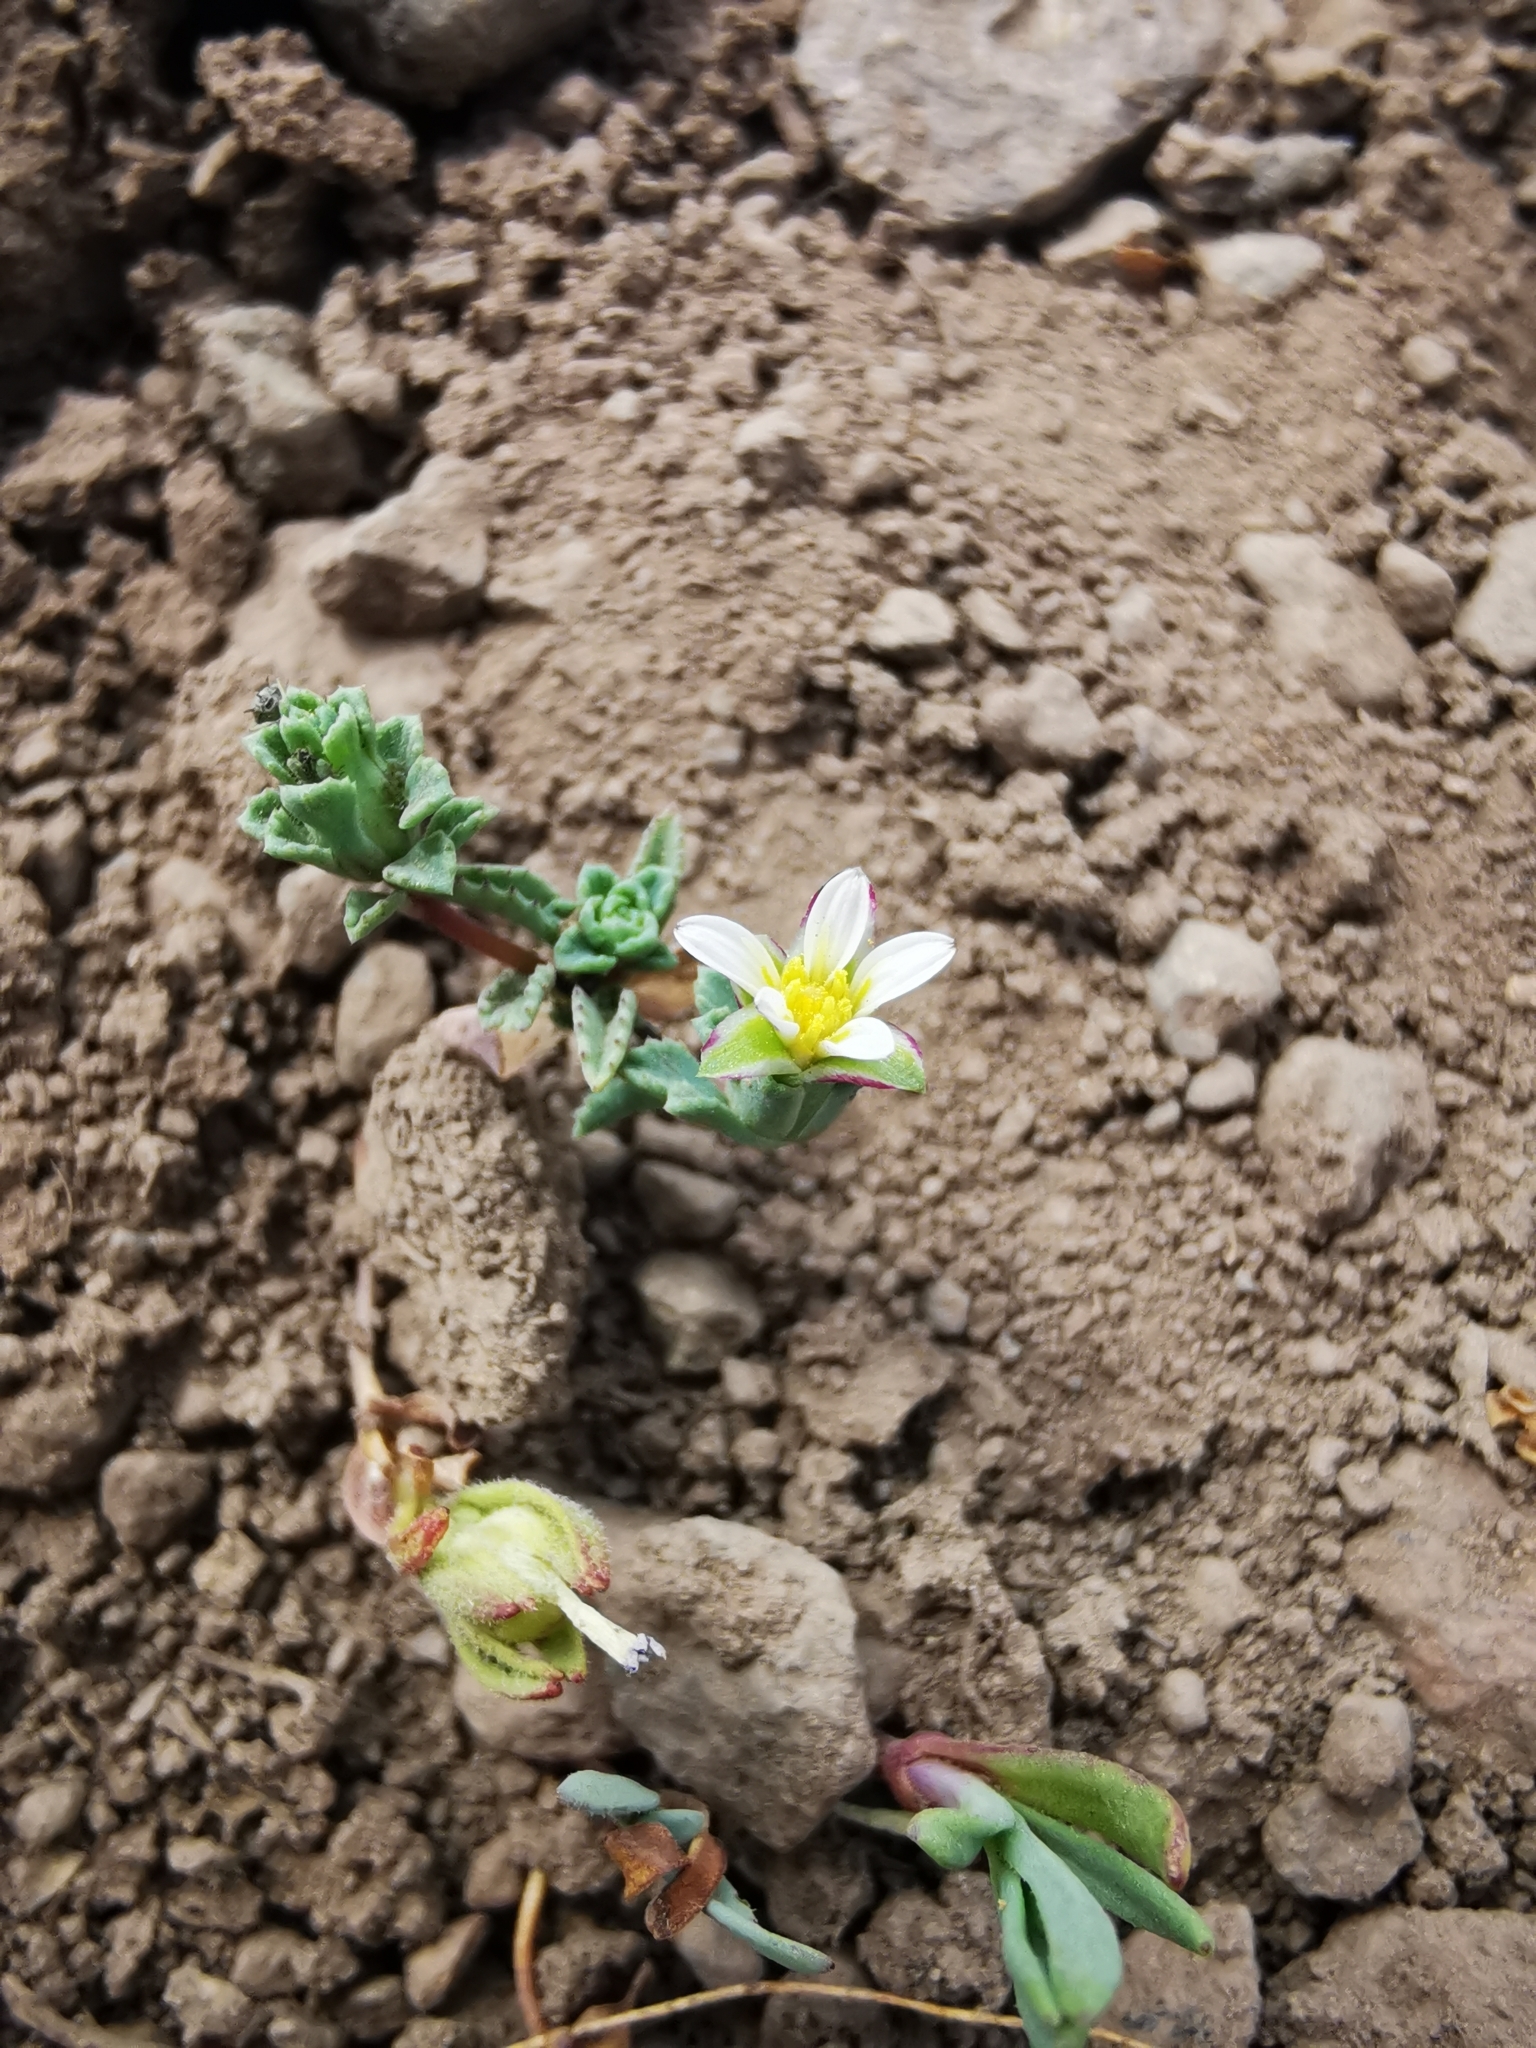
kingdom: Plantae
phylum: Tracheophyta
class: Magnoliopsida
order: Asterales
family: Asteraceae
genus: Chaetanthera
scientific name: Chaetanthera euphrasioides
